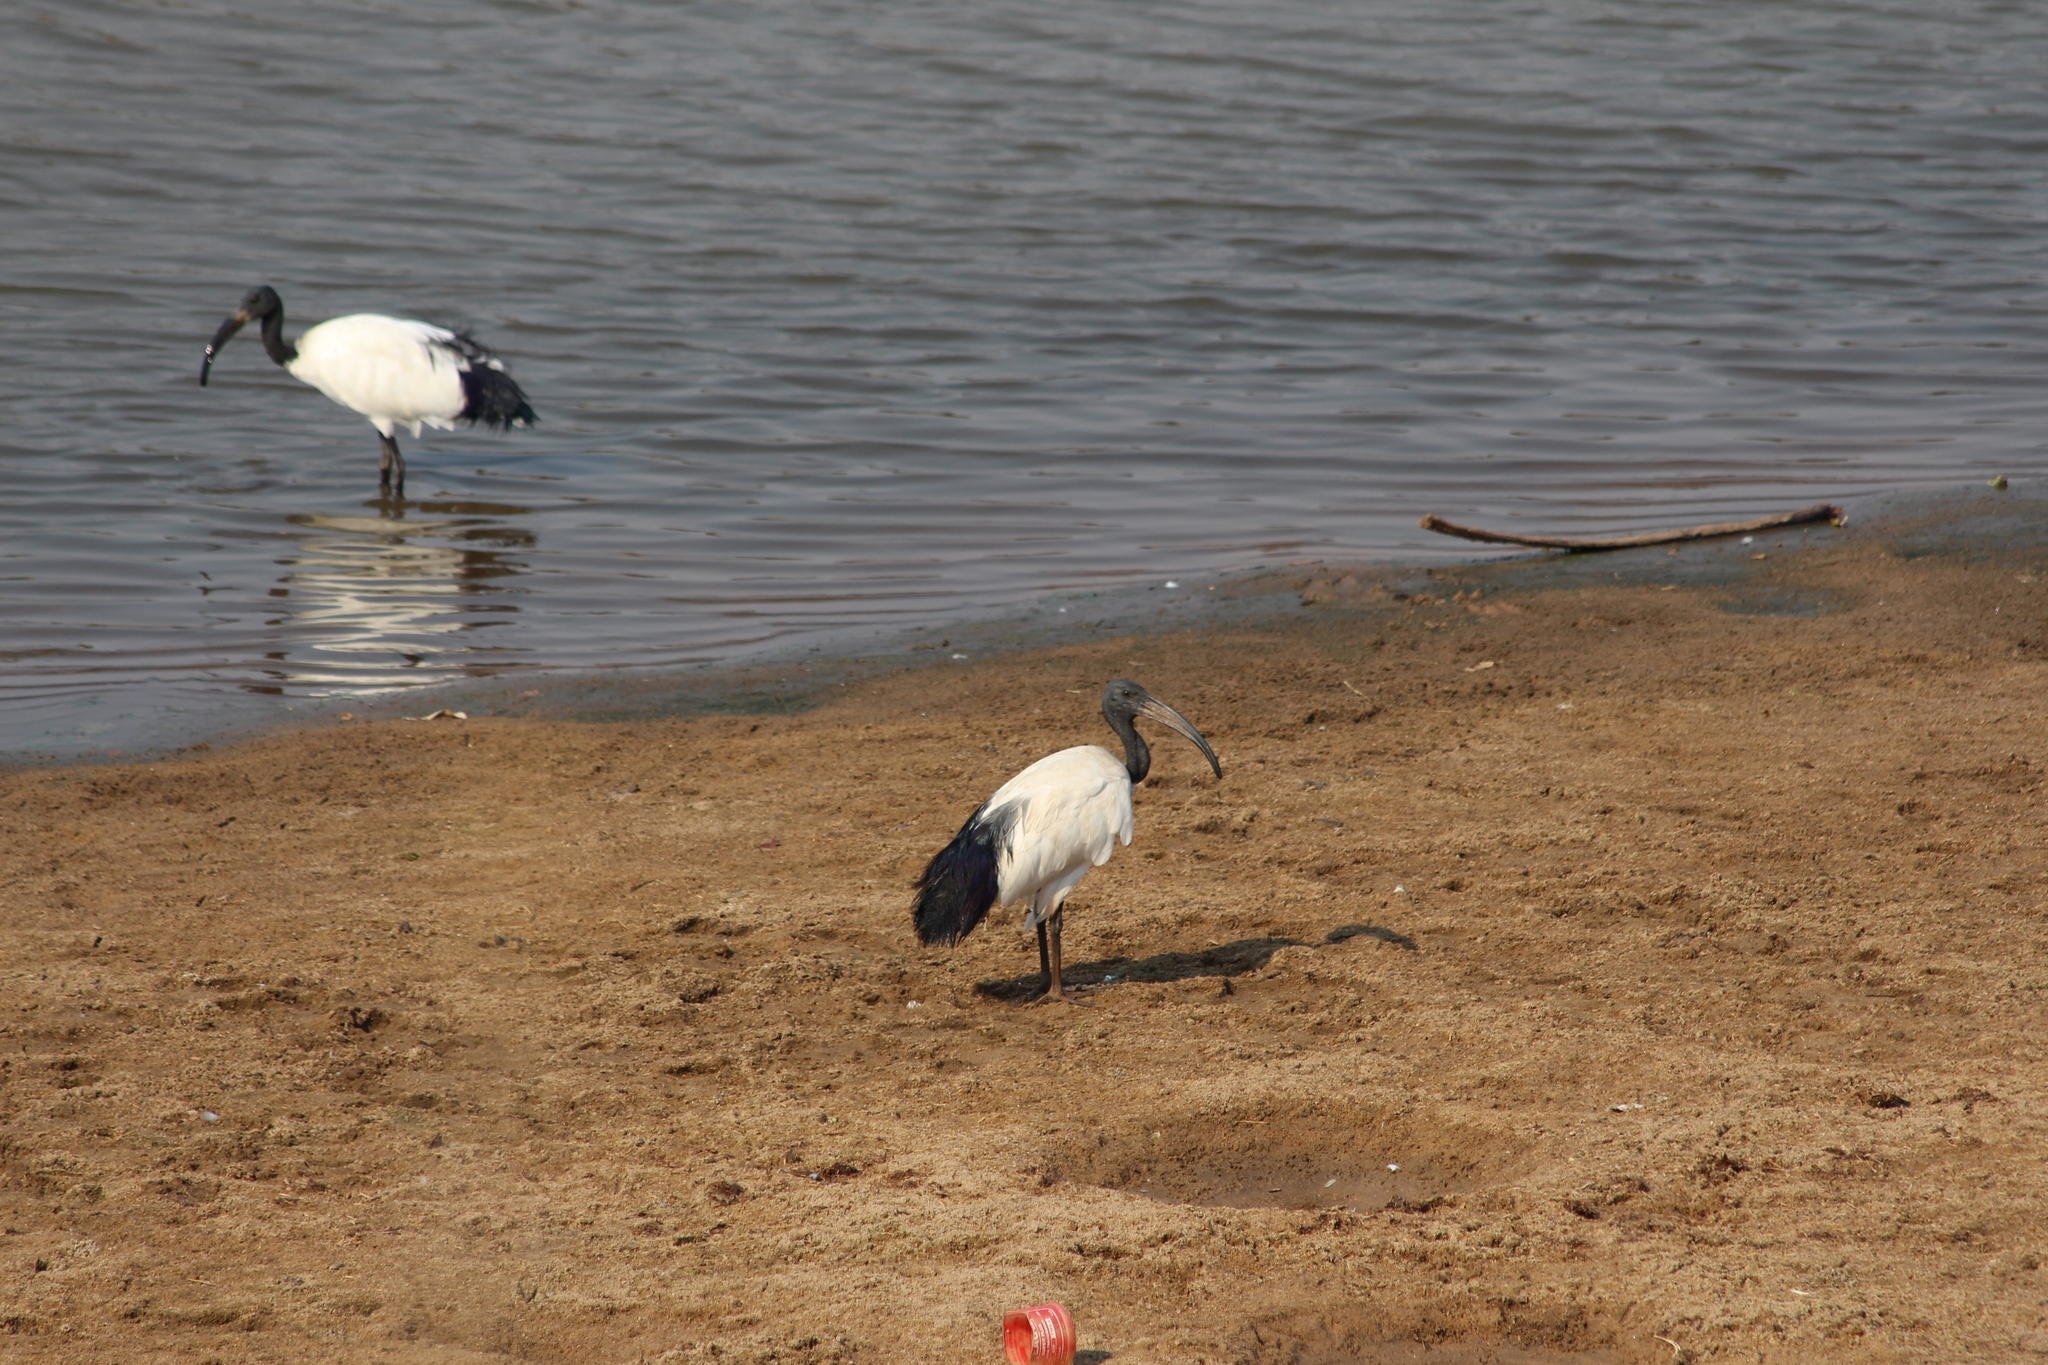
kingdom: Animalia
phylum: Chordata
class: Aves
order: Pelecaniformes
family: Threskiornithidae
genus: Threskiornis
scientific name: Threskiornis aethiopicus
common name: Sacred ibis
